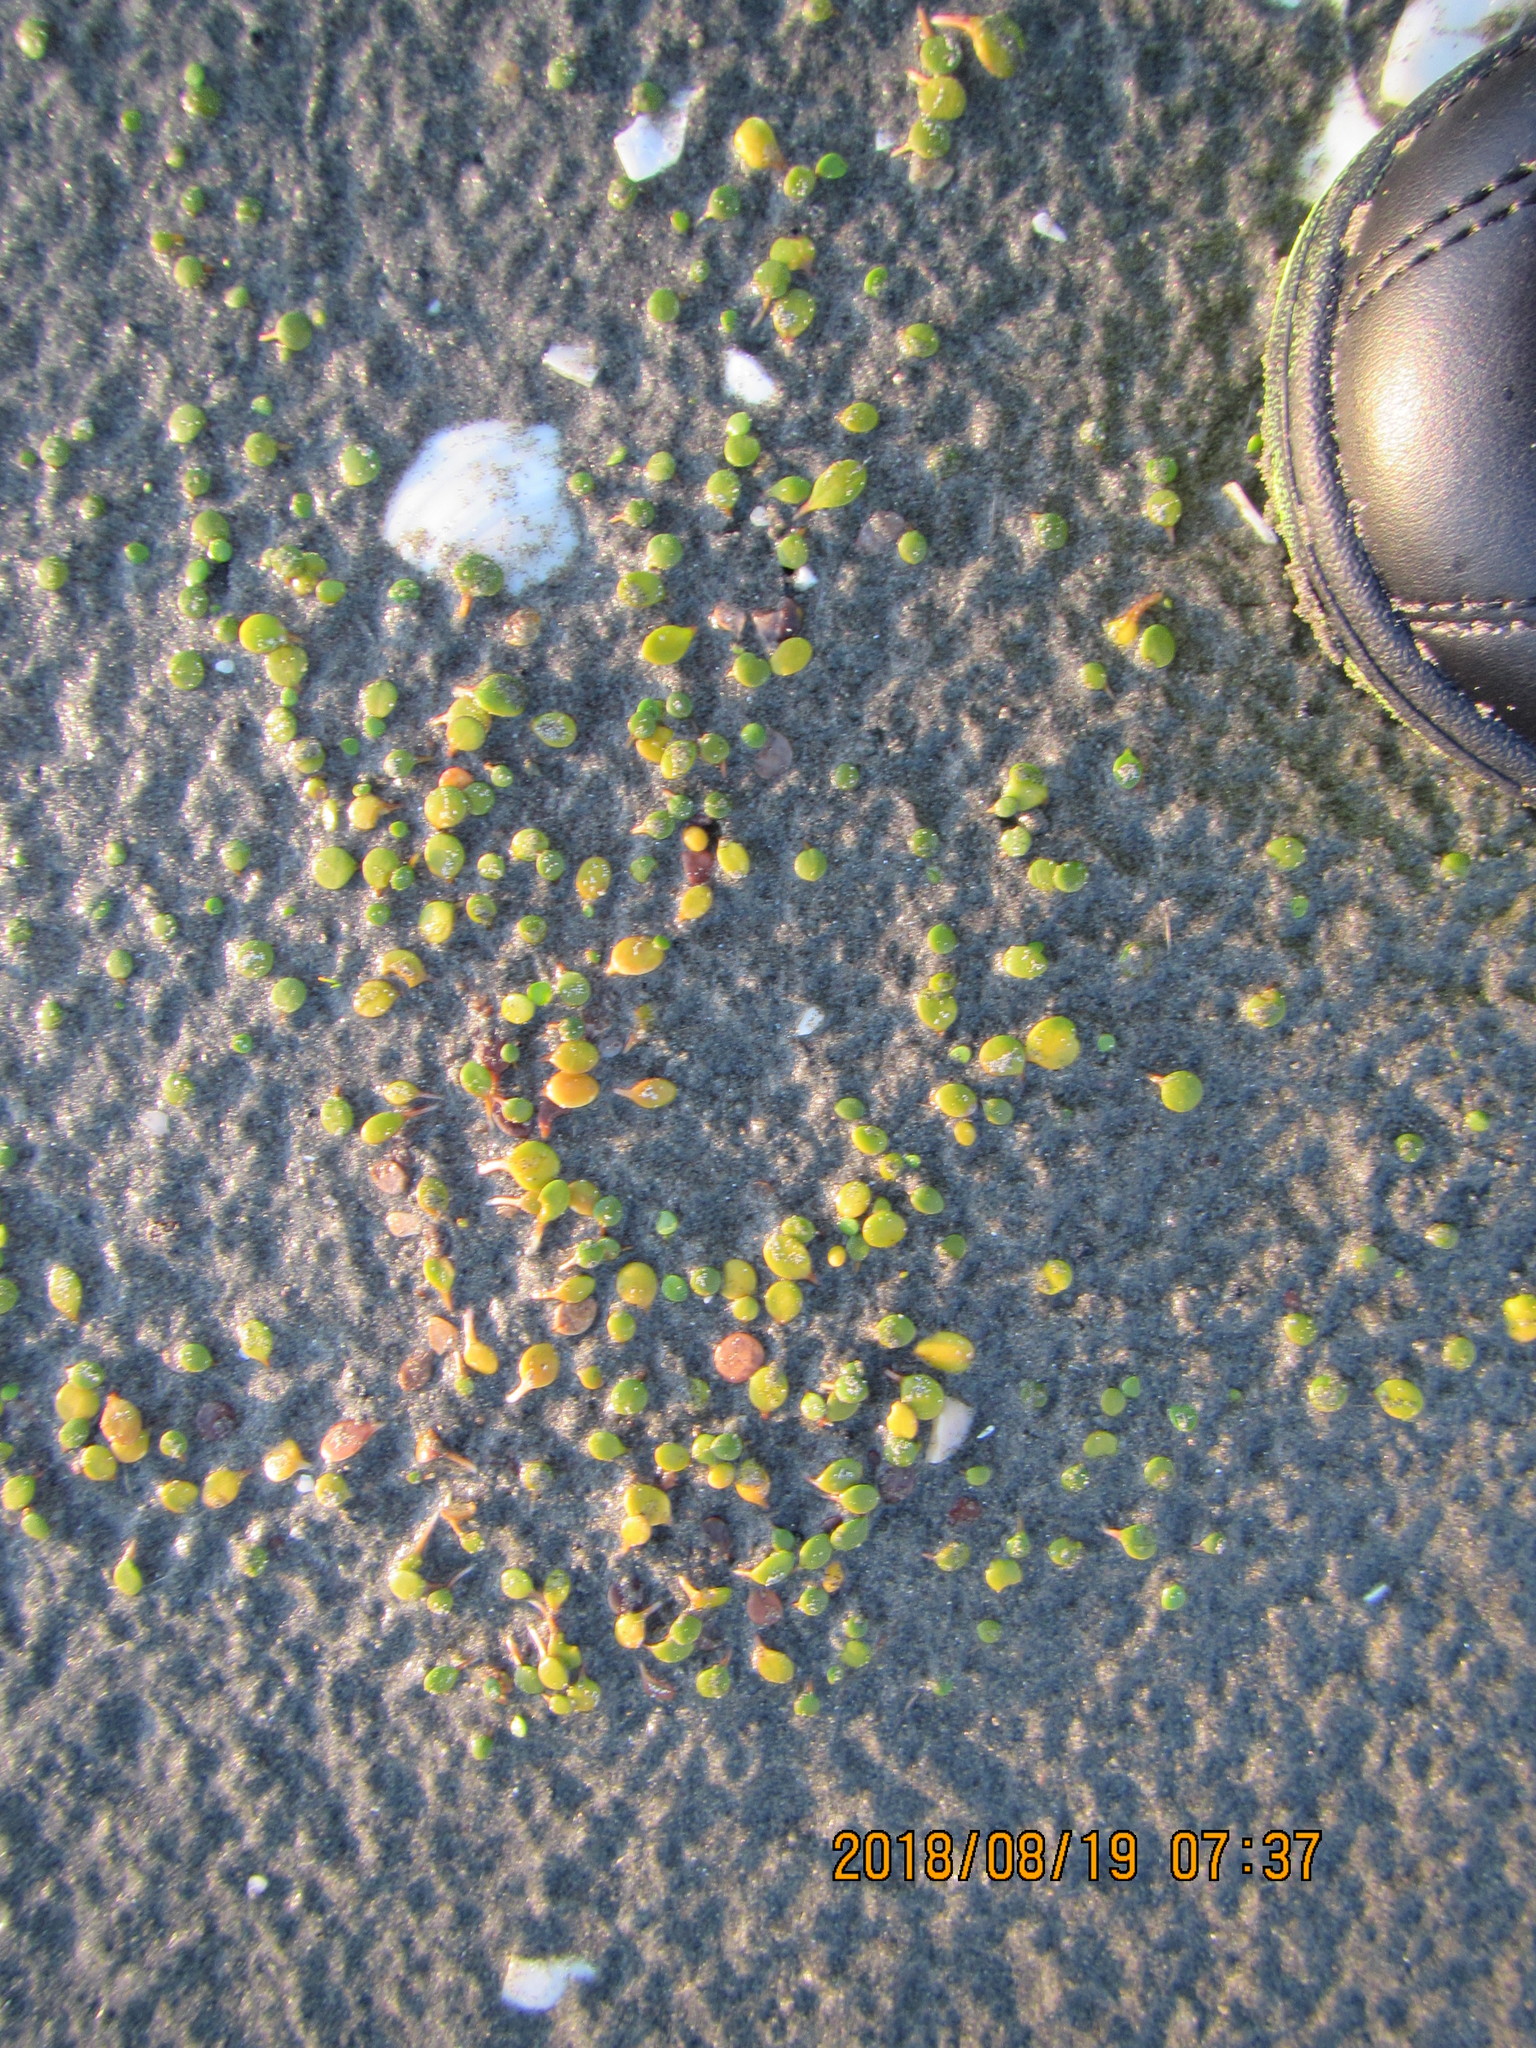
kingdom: Plantae
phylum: Tracheophyta
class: Magnoliopsida
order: Asterales
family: Goodeniaceae
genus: Goodenia
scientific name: Goodenia heenanii
